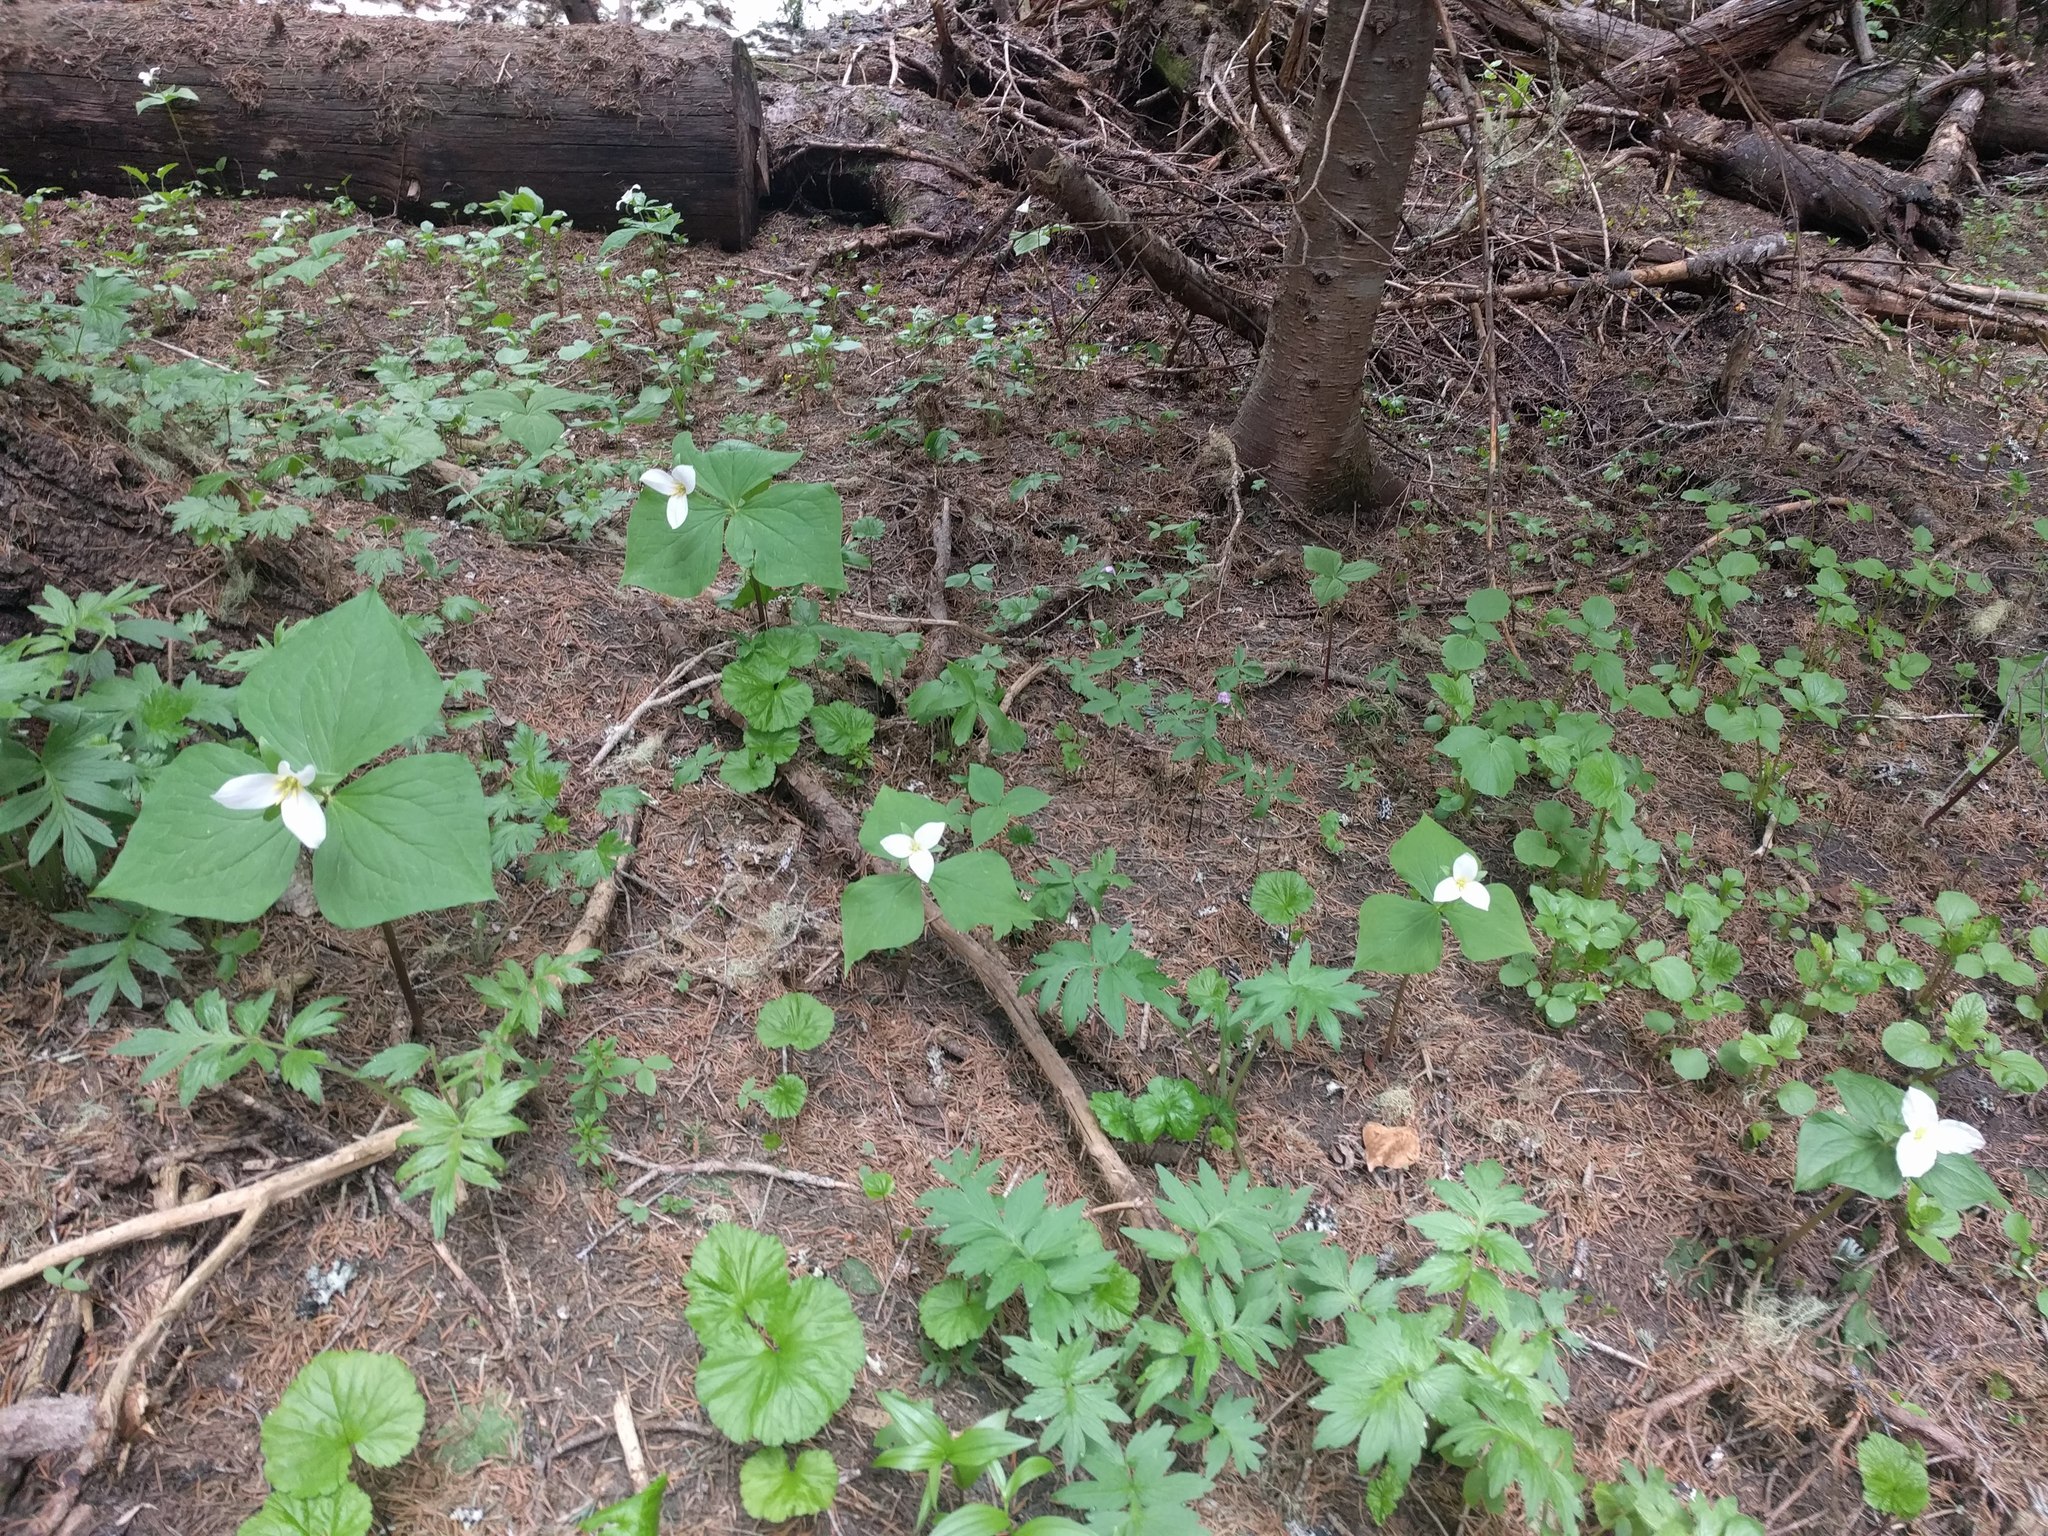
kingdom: Plantae
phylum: Tracheophyta
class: Liliopsida
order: Liliales
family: Melanthiaceae
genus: Trillium
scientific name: Trillium ovatum
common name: Pacific trillium
